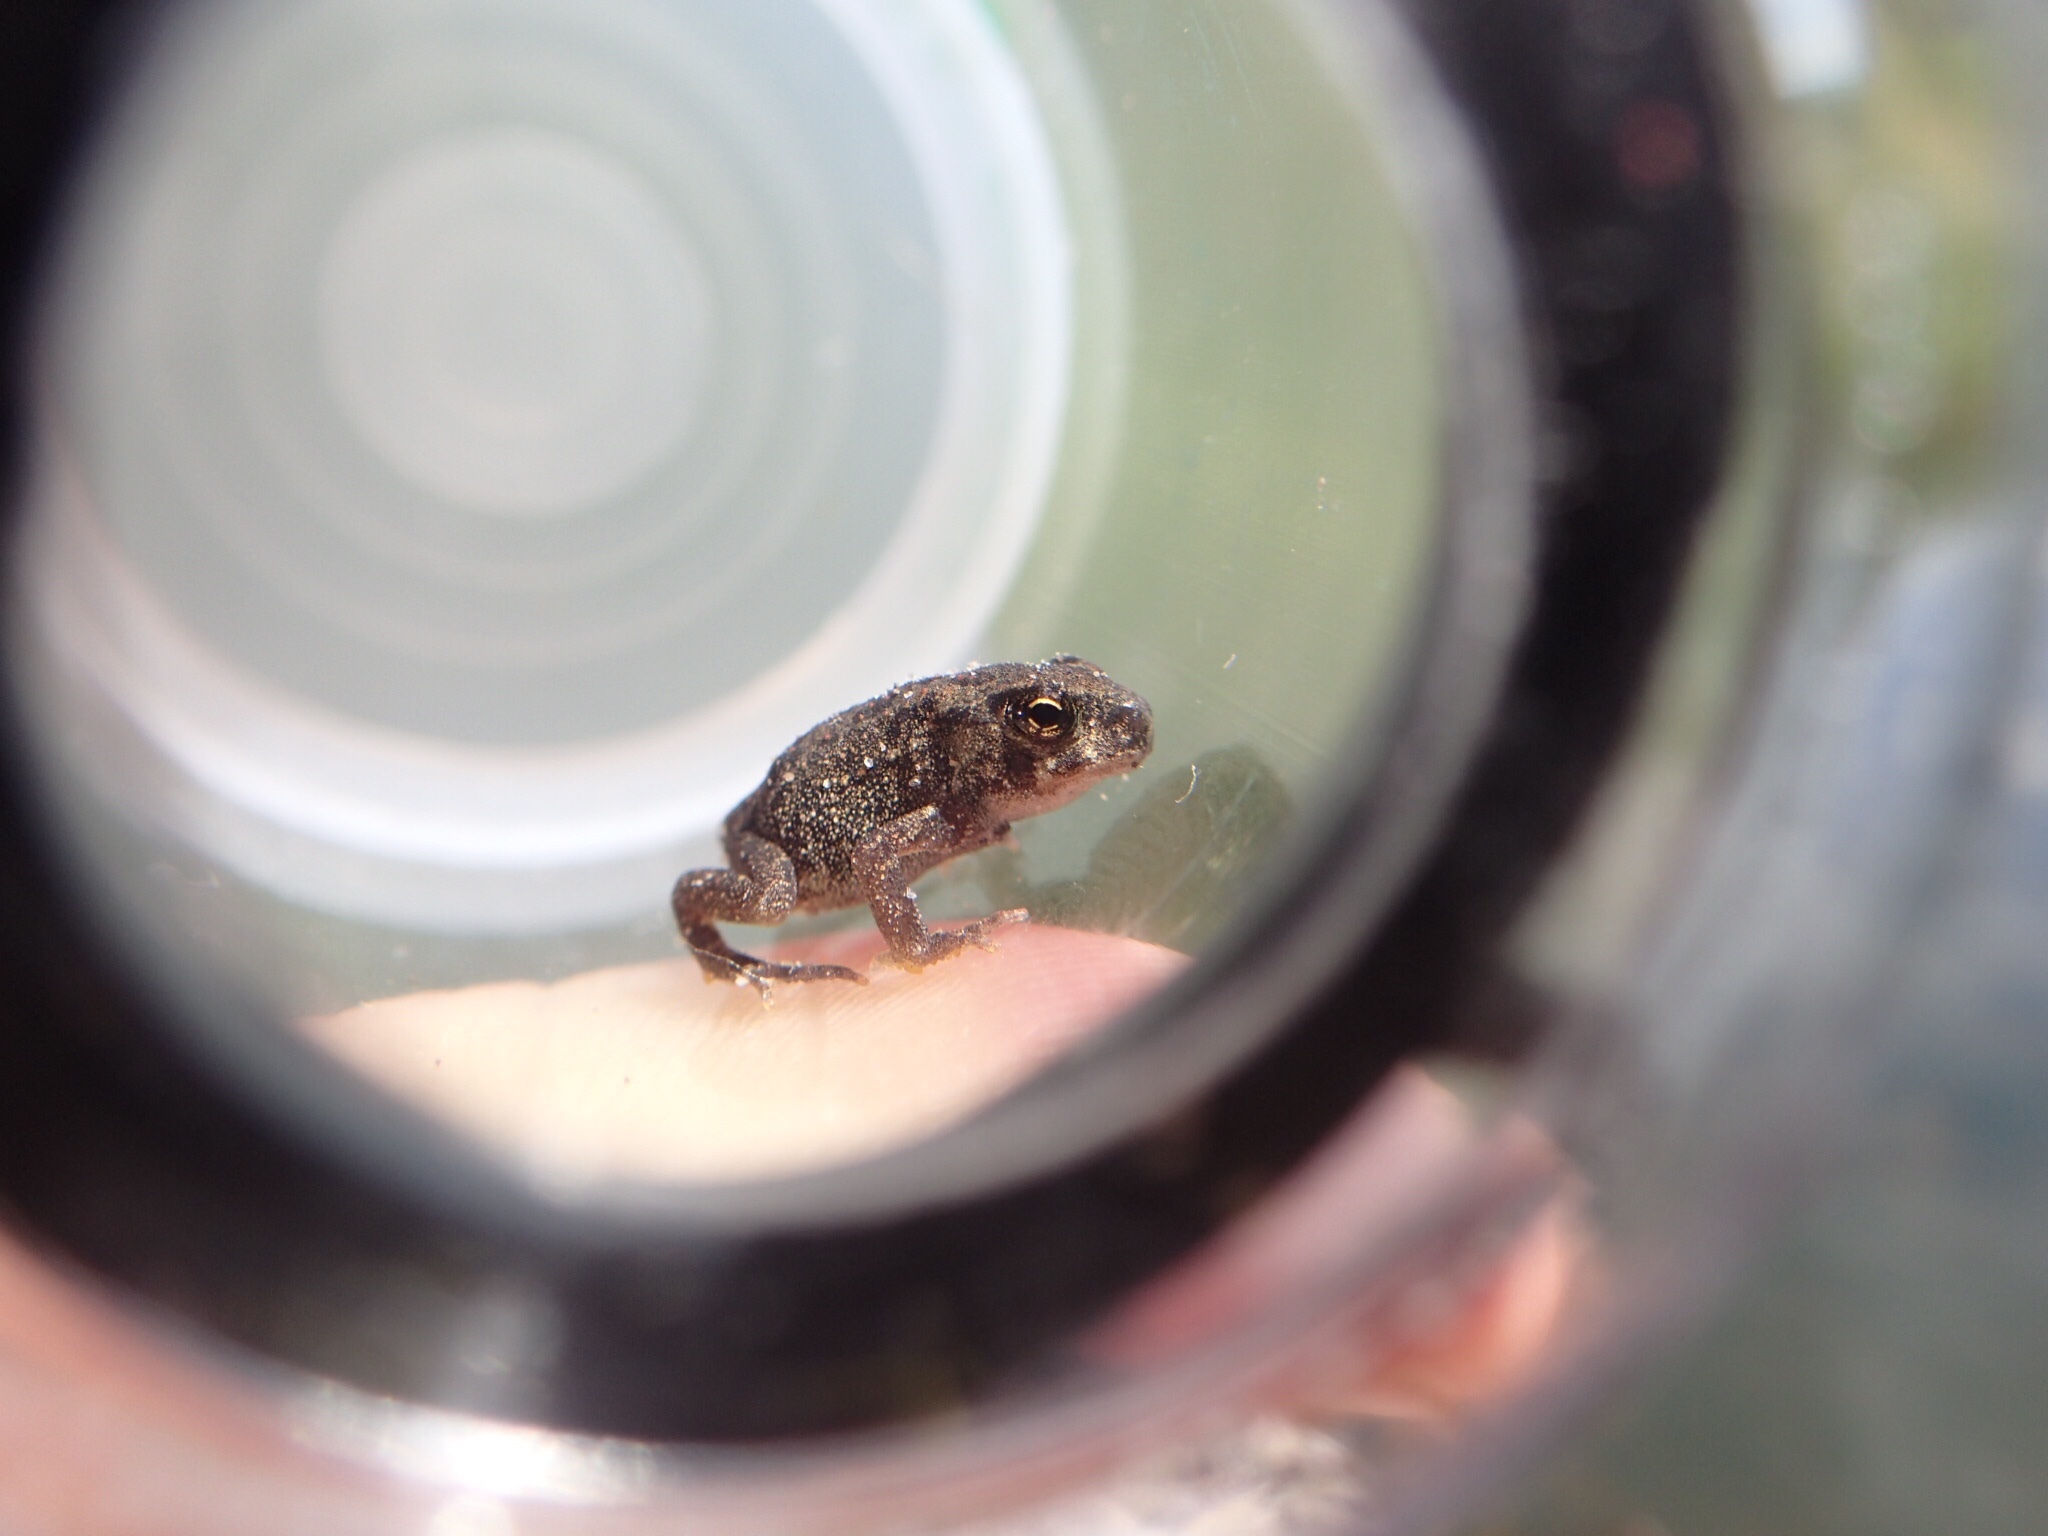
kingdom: Animalia
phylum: Chordata
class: Amphibia
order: Anura
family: Bufonidae
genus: Anaxyrus
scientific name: Anaxyrus americanus
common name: American toad
